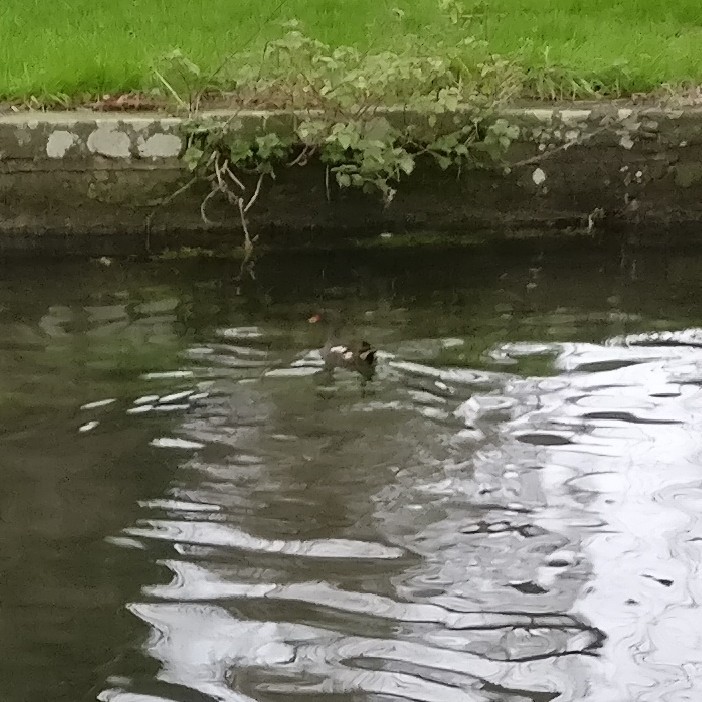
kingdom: Animalia
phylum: Chordata
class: Aves
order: Gruiformes
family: Rallidae
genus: Gallinula
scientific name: Gallinula chloropus
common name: Common moorhen
